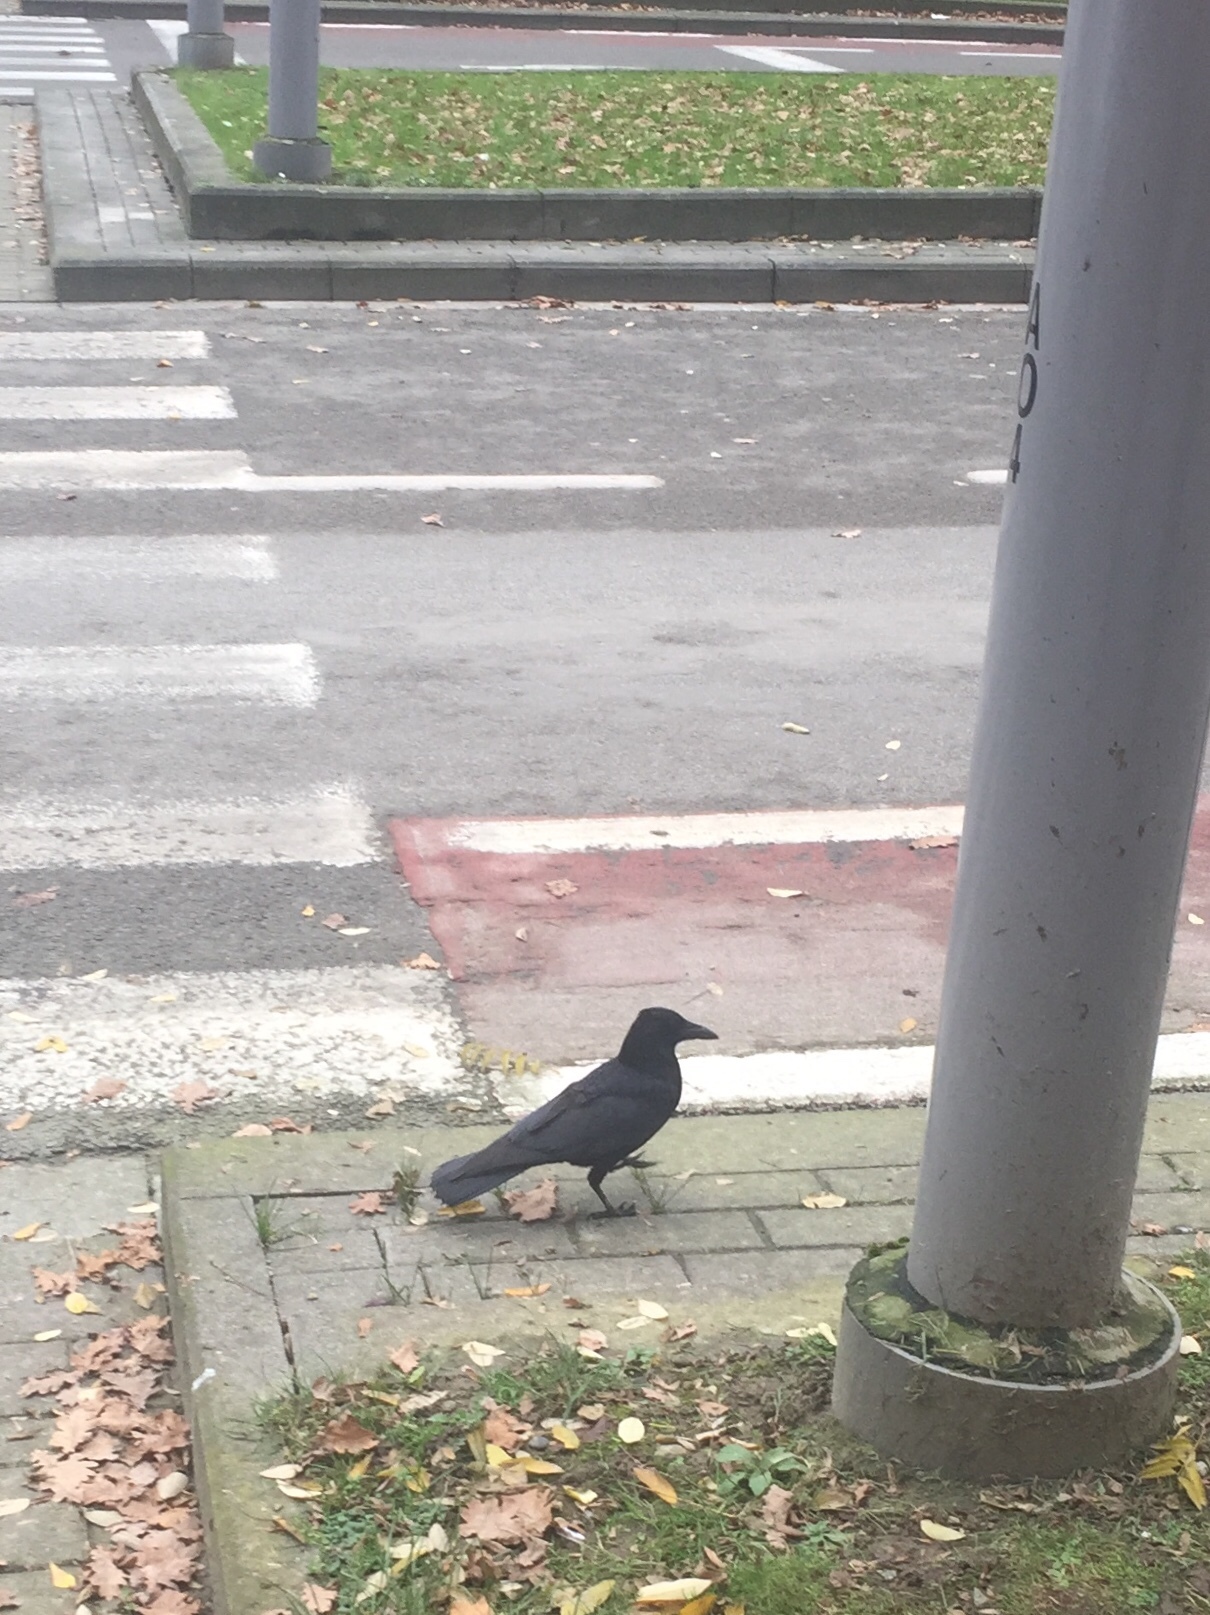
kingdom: Animalia
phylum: Chordata
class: Aves
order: Passeriformes
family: Corvidae
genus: Corvus
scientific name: Corvus corone
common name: Carrion crow
